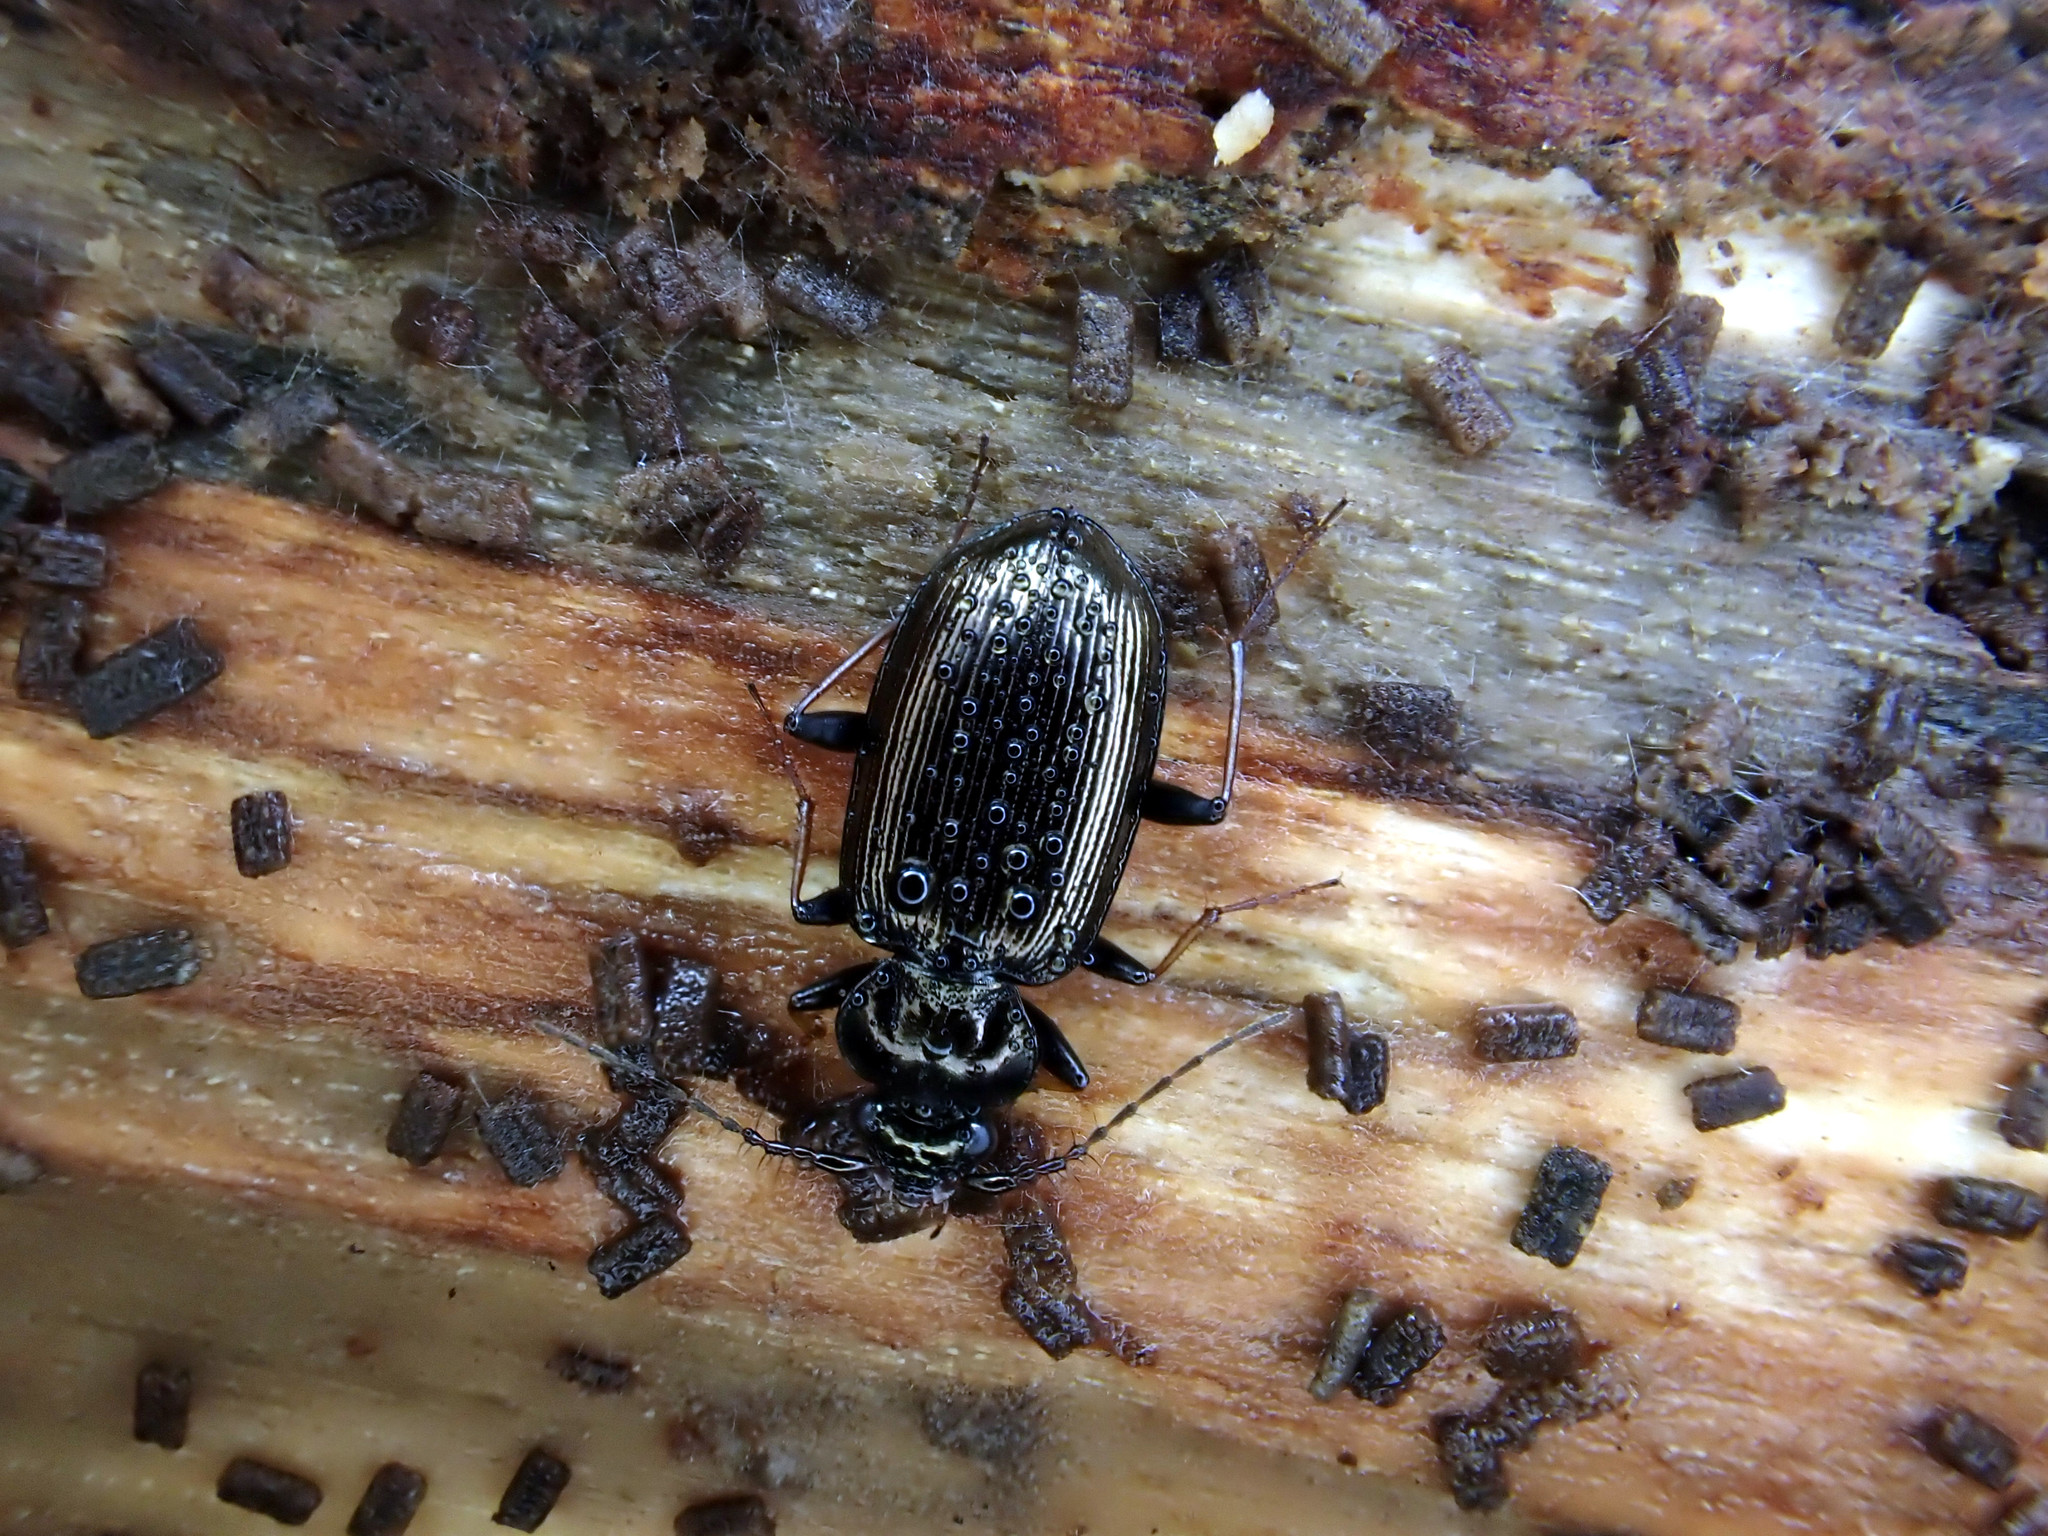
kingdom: Animalia
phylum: Arthropoda
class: Insecta
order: Coleoptera
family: Carabidae
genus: Loricera
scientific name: Loricera pilicornis
